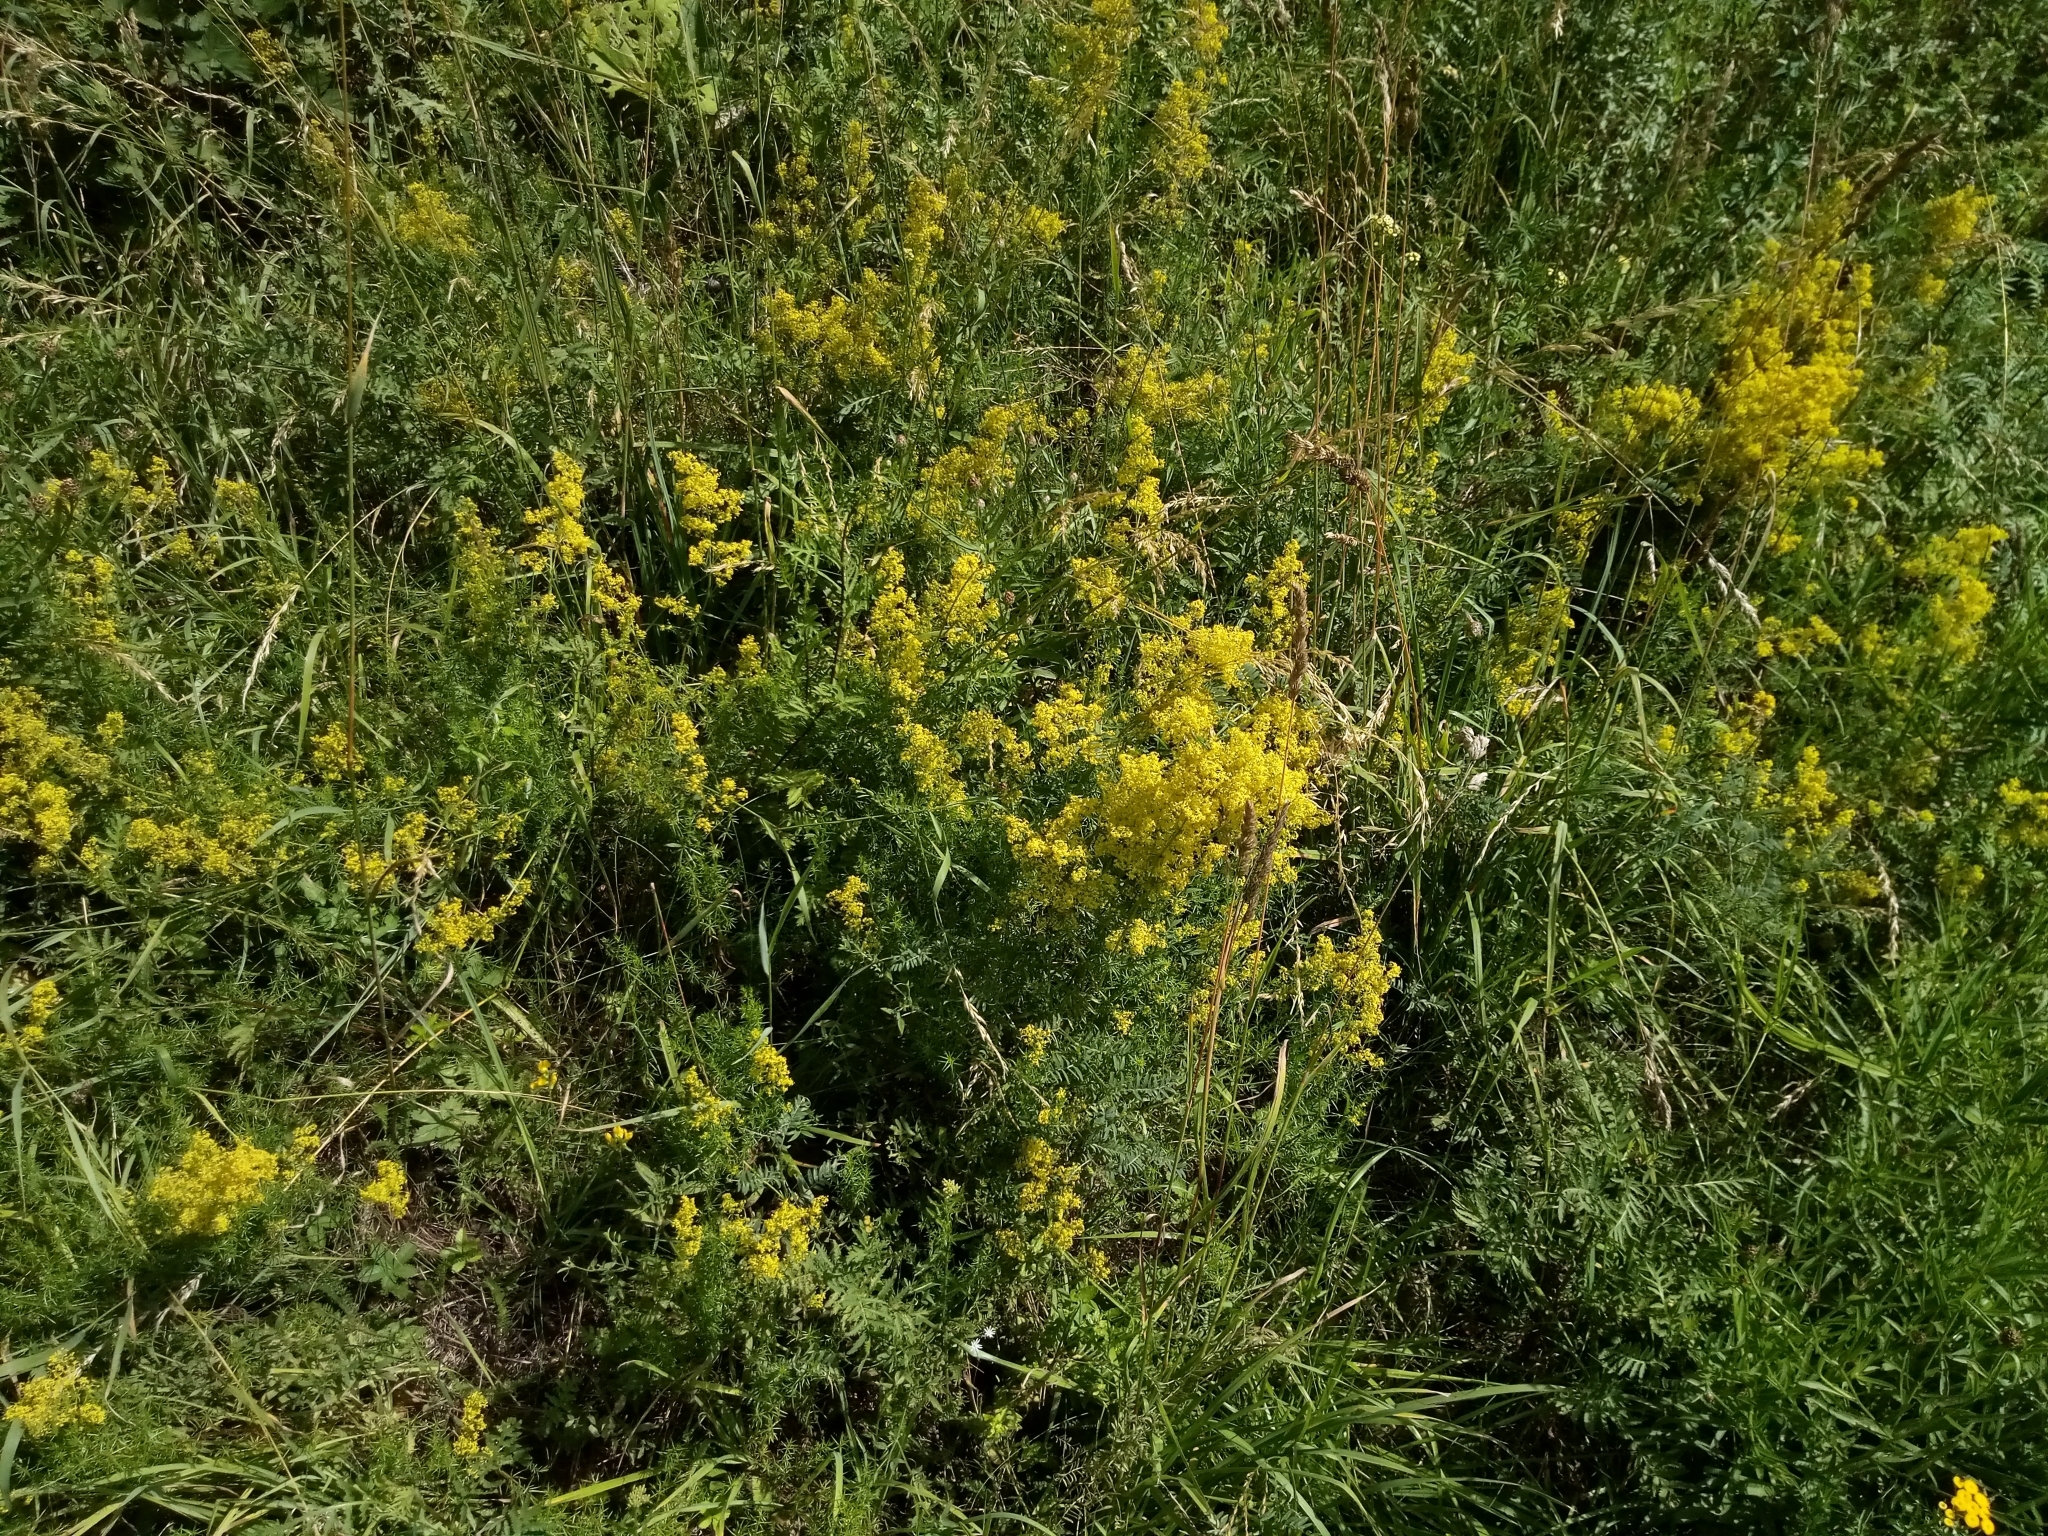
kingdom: Plantae
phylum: Tracheophyta
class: Magnoliopsida
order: Gentianales
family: Rubiaceae
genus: Galium
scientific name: Galium verum
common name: Lady's bedstraw
